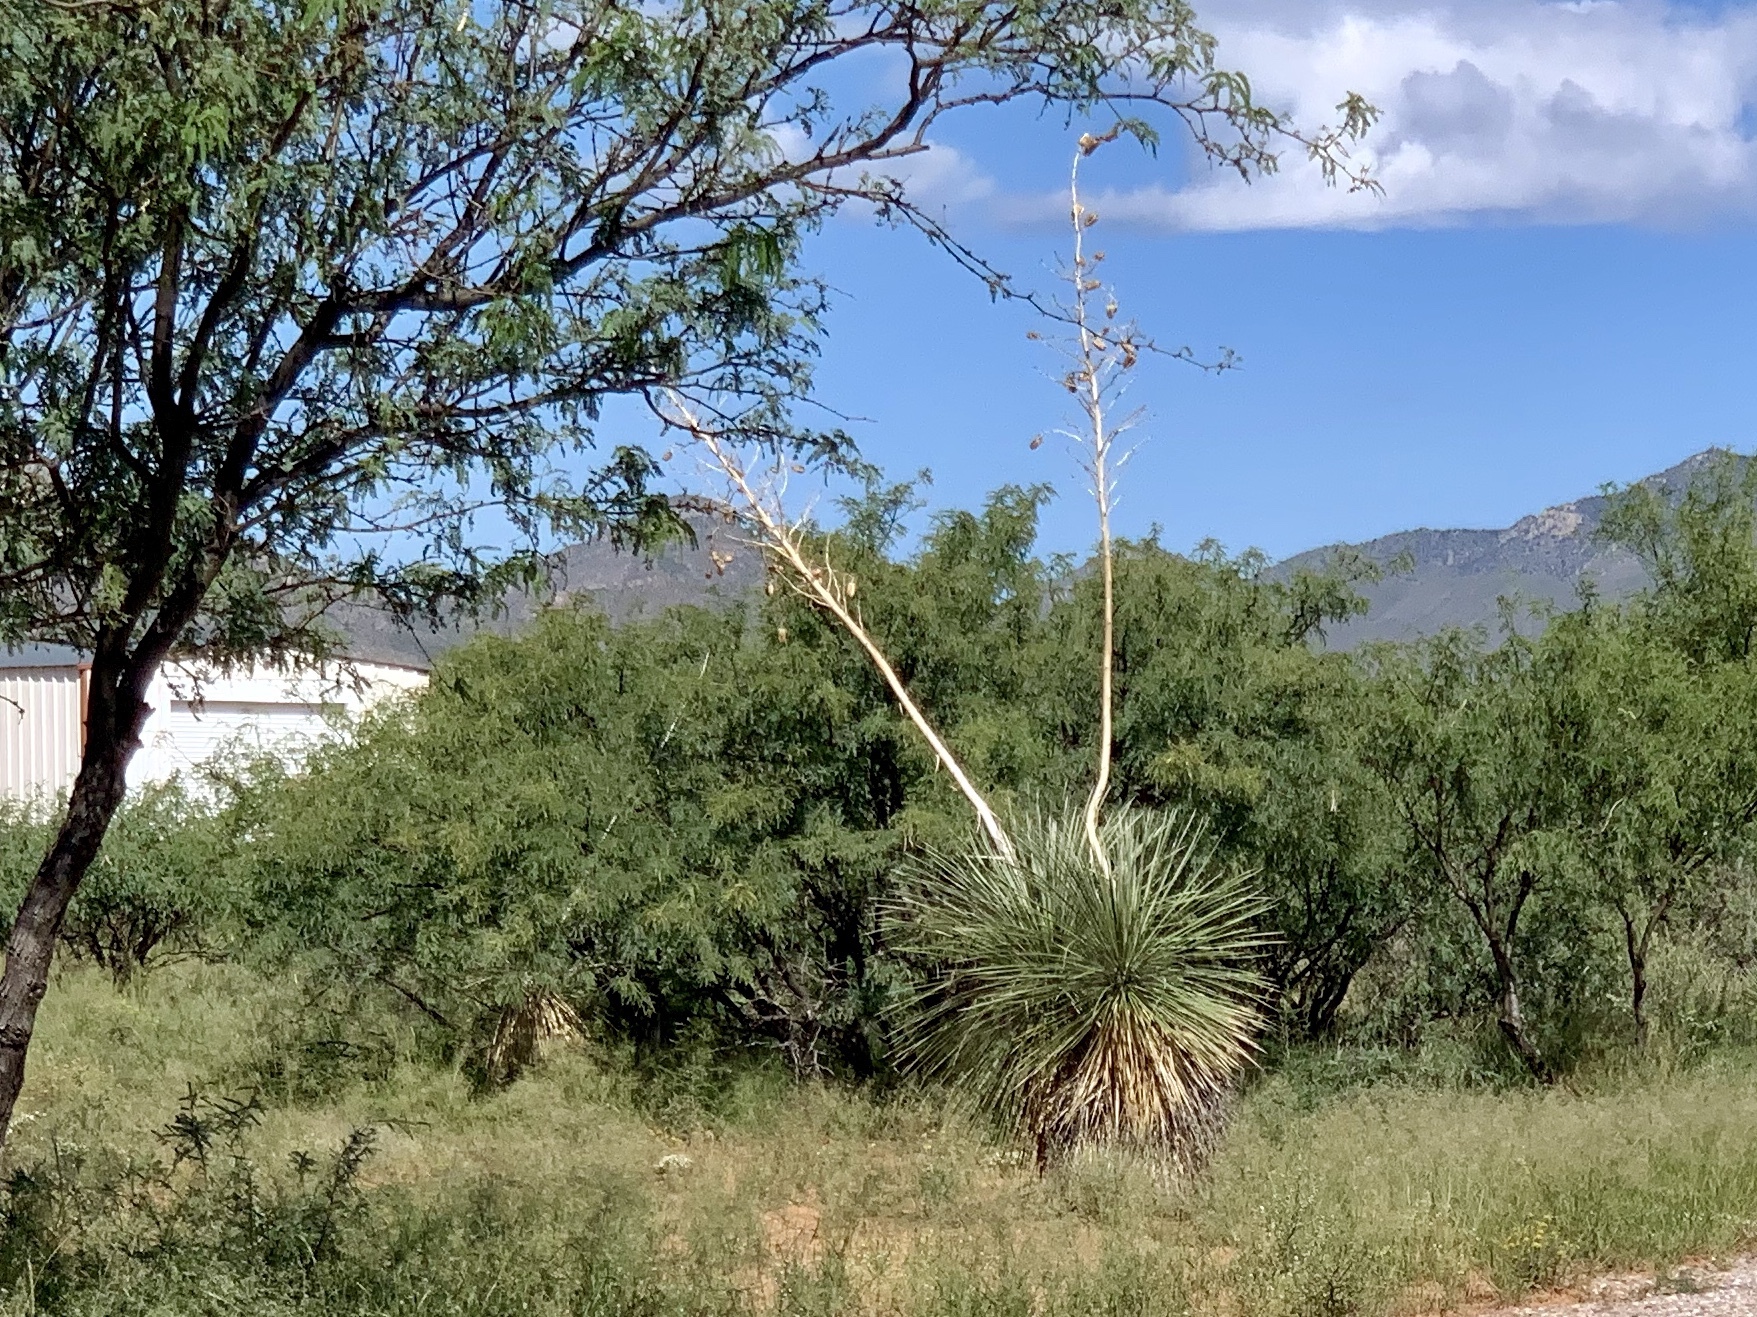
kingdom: Plantae
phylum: Tracheophyta
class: Liliopsida
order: Asparagales
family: Asparagaceae
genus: Yucca
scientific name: Yucca elata
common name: Palmella
